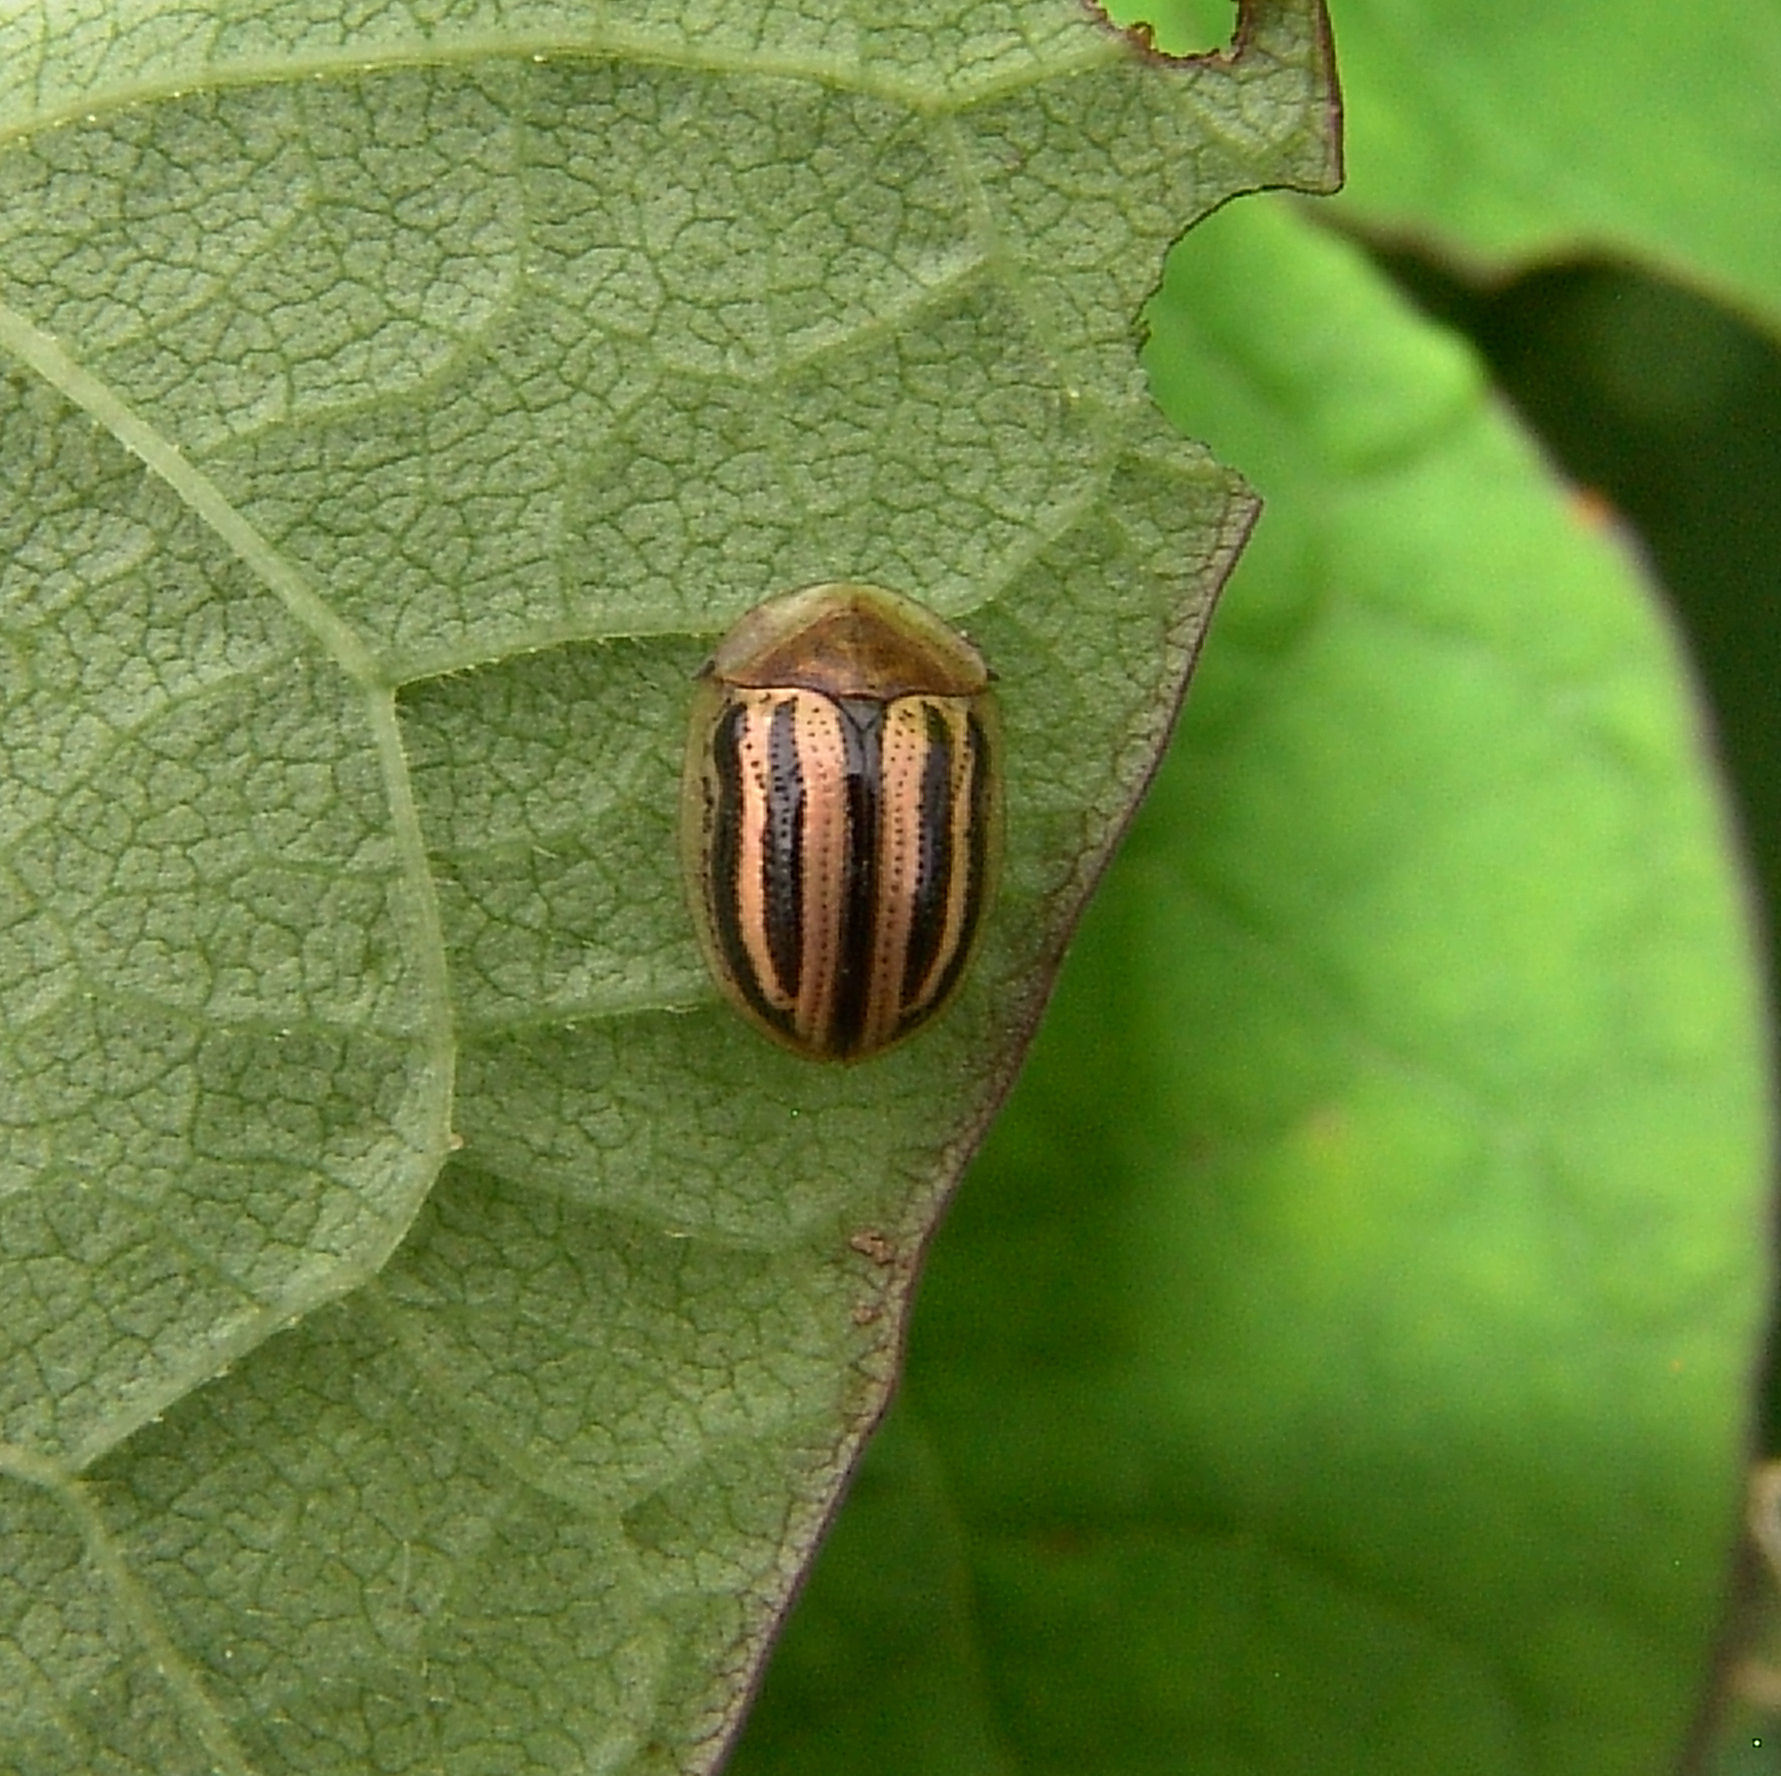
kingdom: Animalia
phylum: Arthropoda
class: Insecta
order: Coleoptera
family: Chrysomelidae
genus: Agroiconota
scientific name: Agroiconota bivittata
